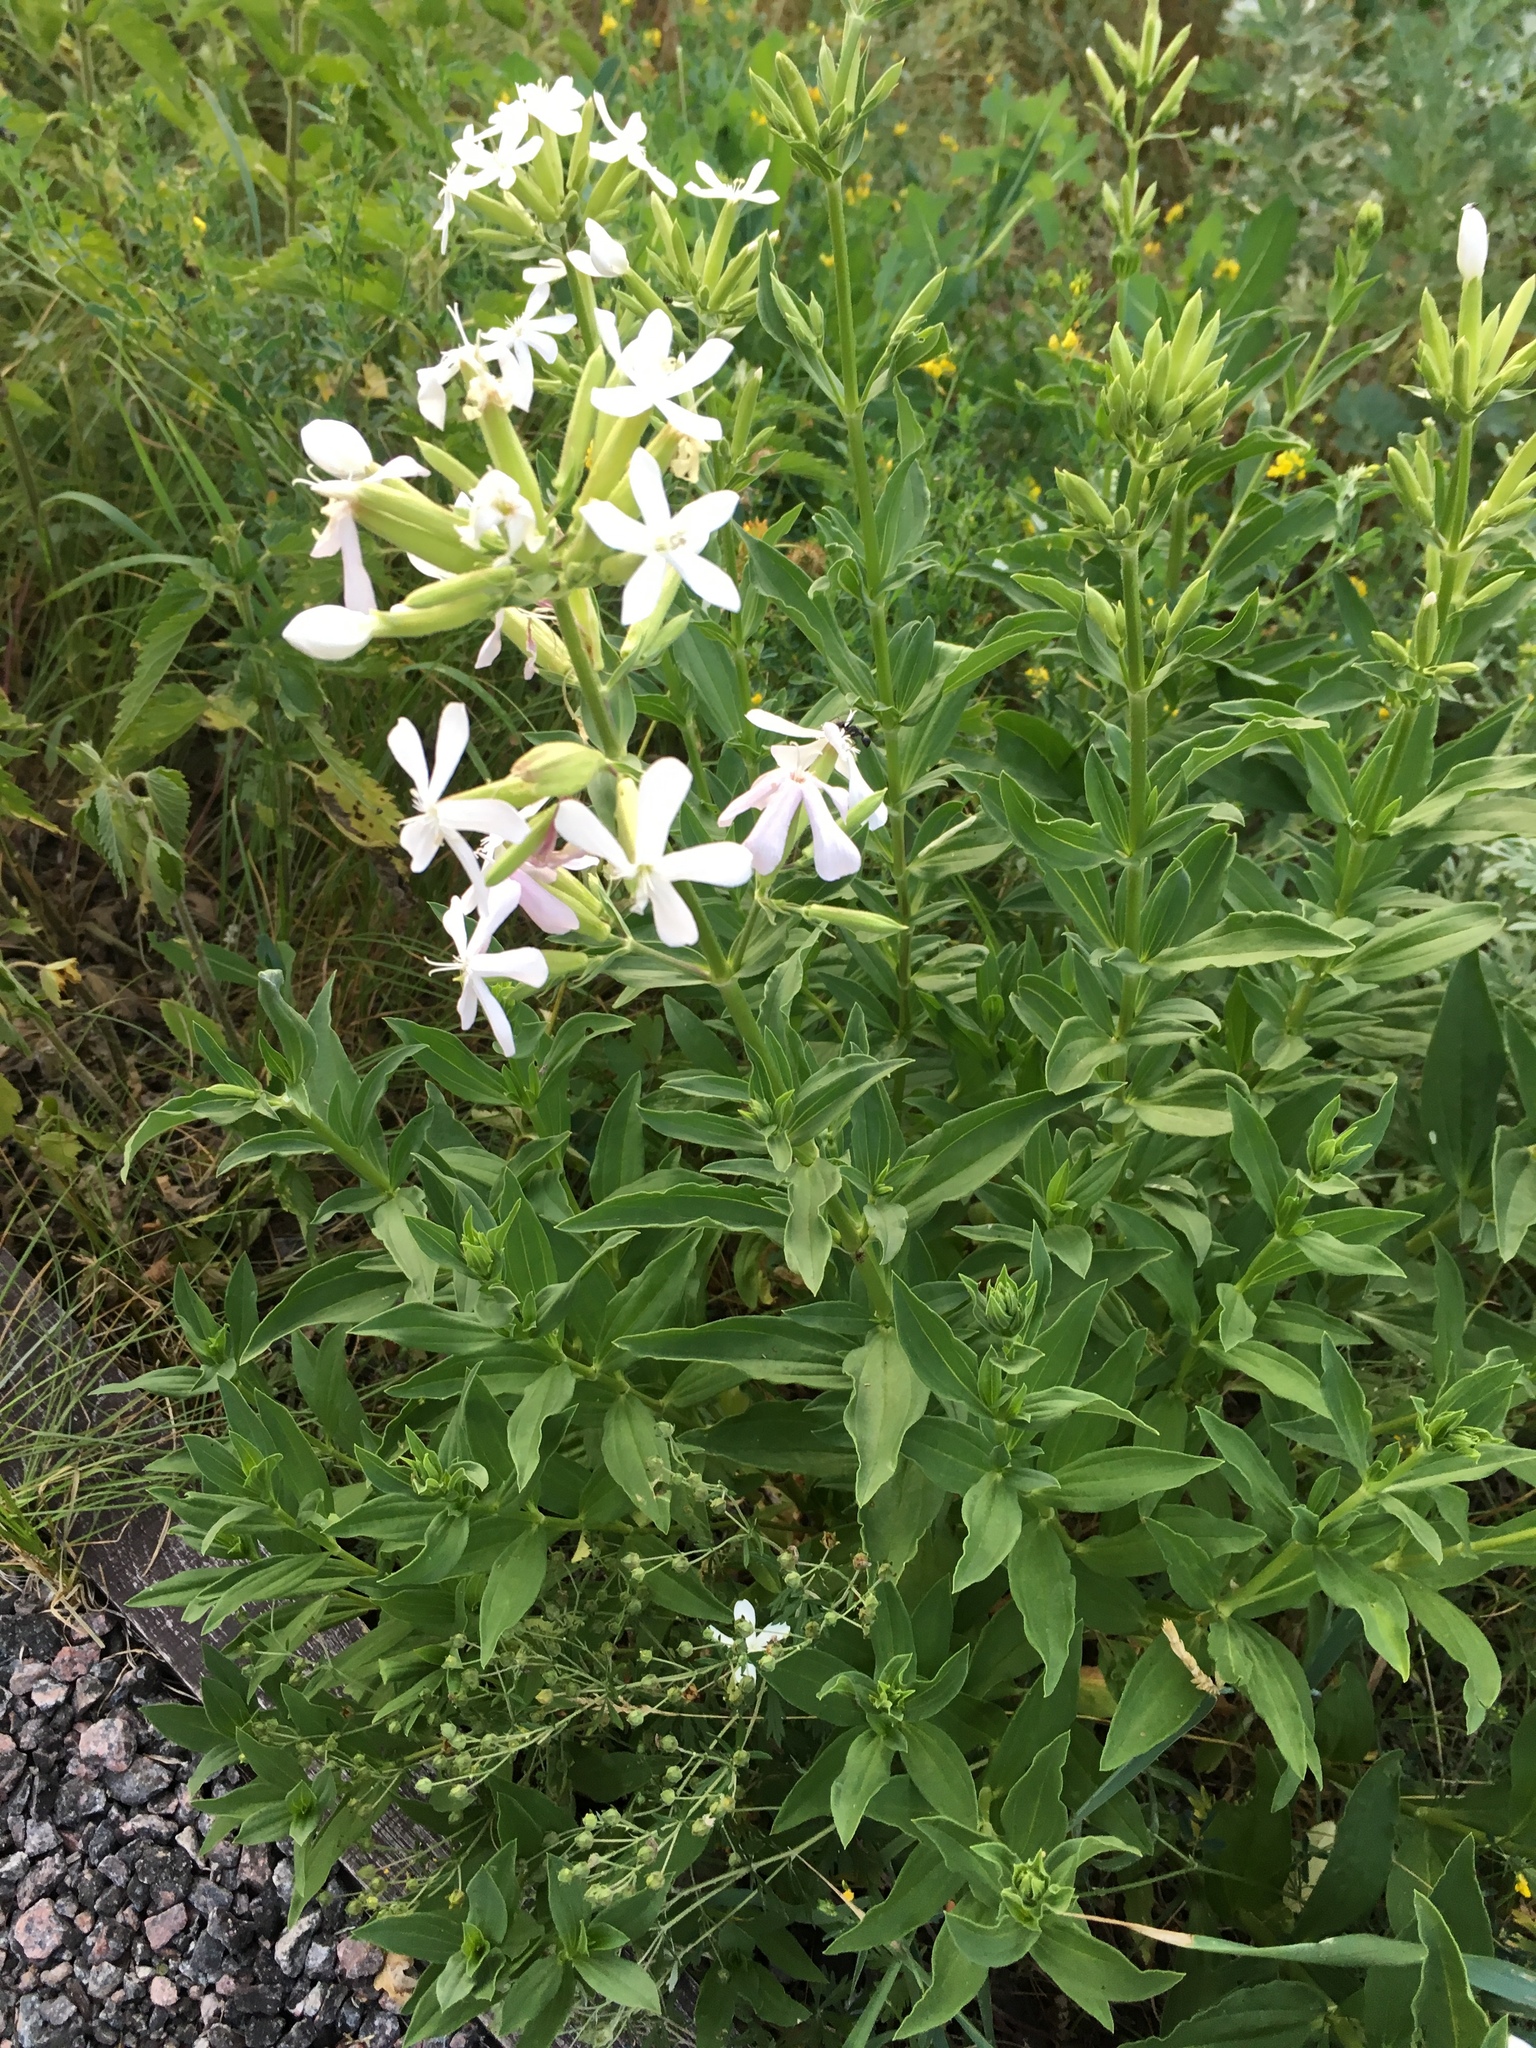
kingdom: Plantae
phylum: Tracheophyta
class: Magnoliopsida
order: Caryophyllales
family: Caryophyllaceae
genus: Saponaria
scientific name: Saponaria officinalis
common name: Soapwort
